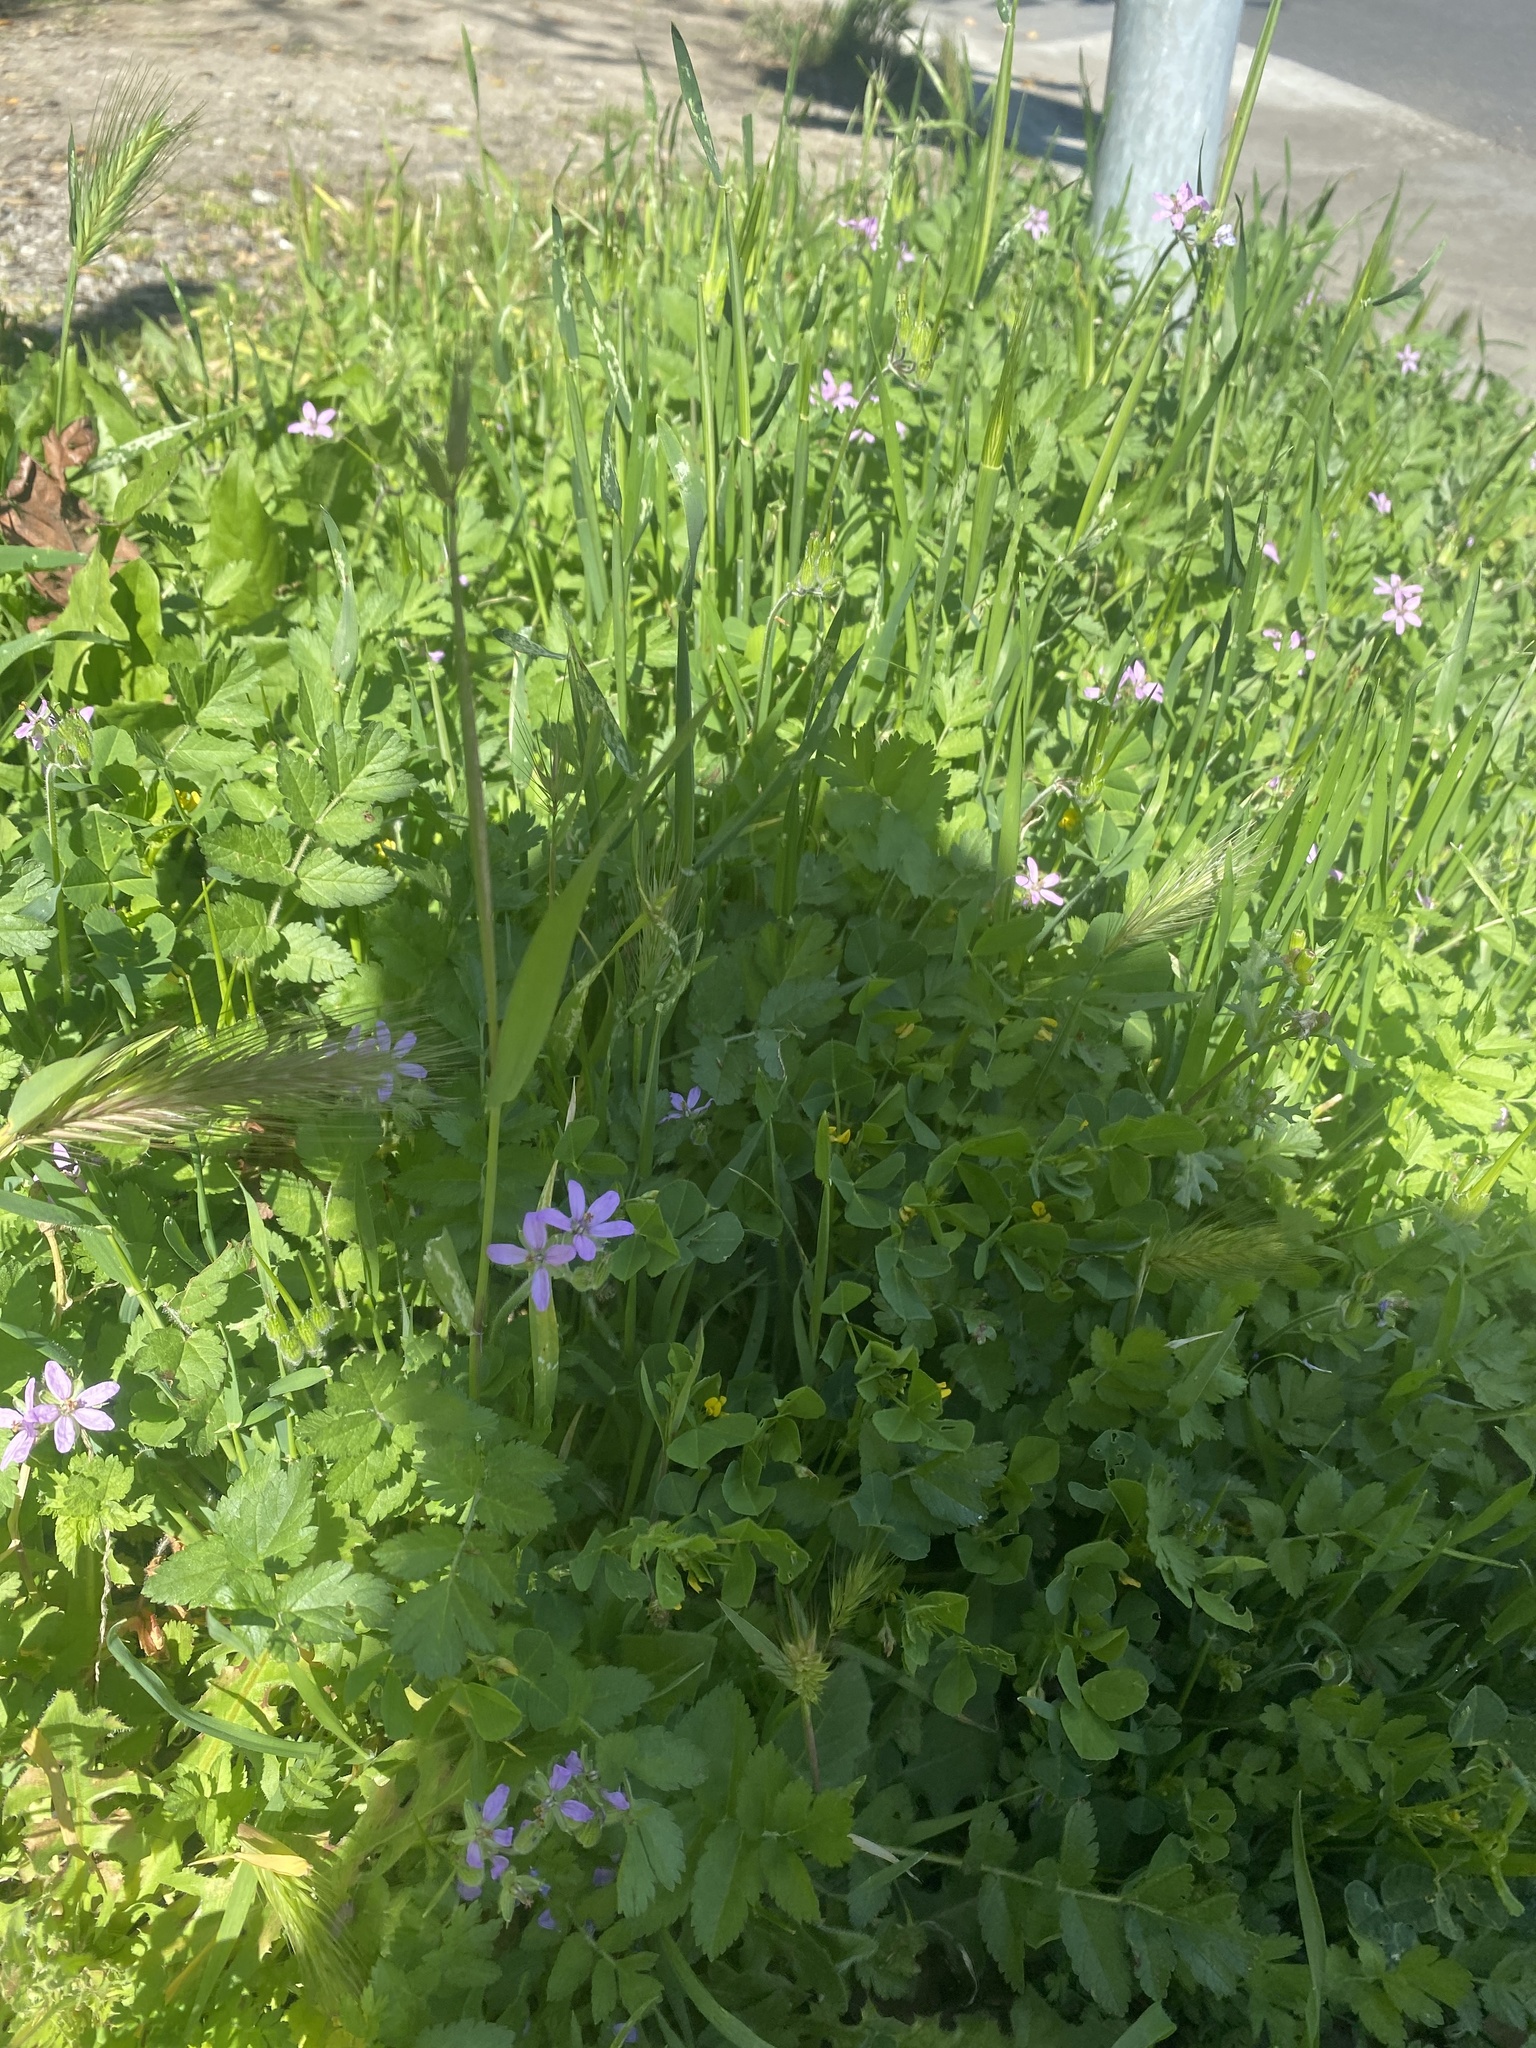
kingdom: Plantae
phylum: Tracheophyta
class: Magnoliopsida
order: Geraniales
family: Geraniaceae
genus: Erodium
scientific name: Erodium moschatum
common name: Musk stork's-bill
